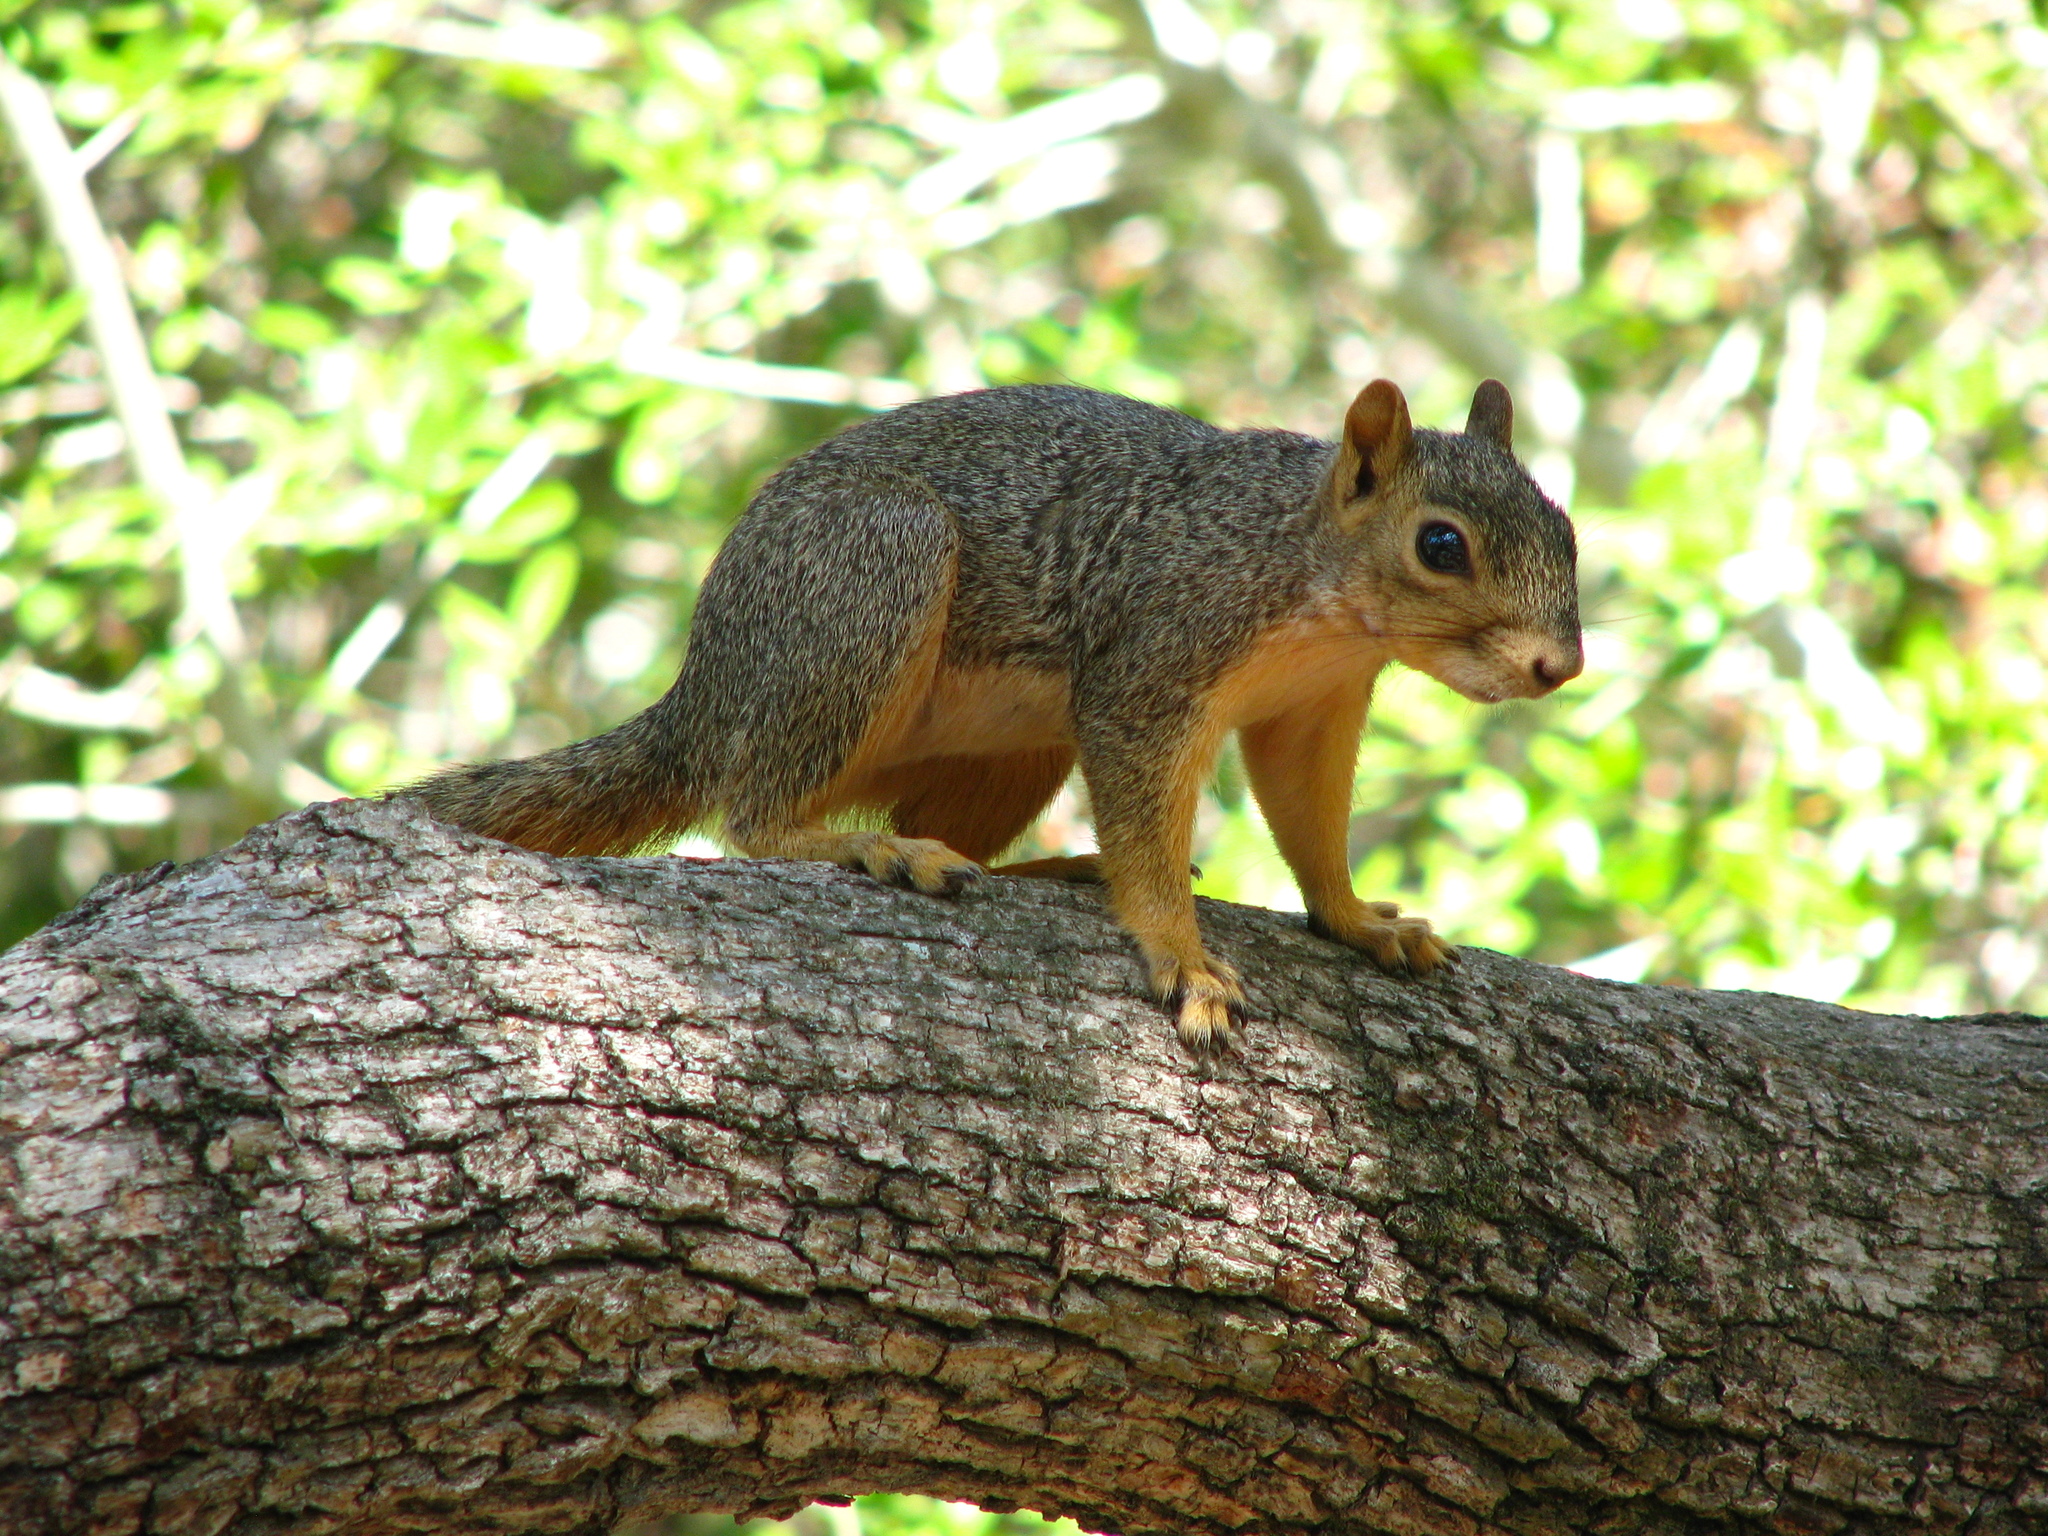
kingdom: Animalia
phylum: Chordata
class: Mammalia
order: Rodentia
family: Sciuridae
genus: Sciurus
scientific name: Sciurus niger
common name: Fox squirrel
